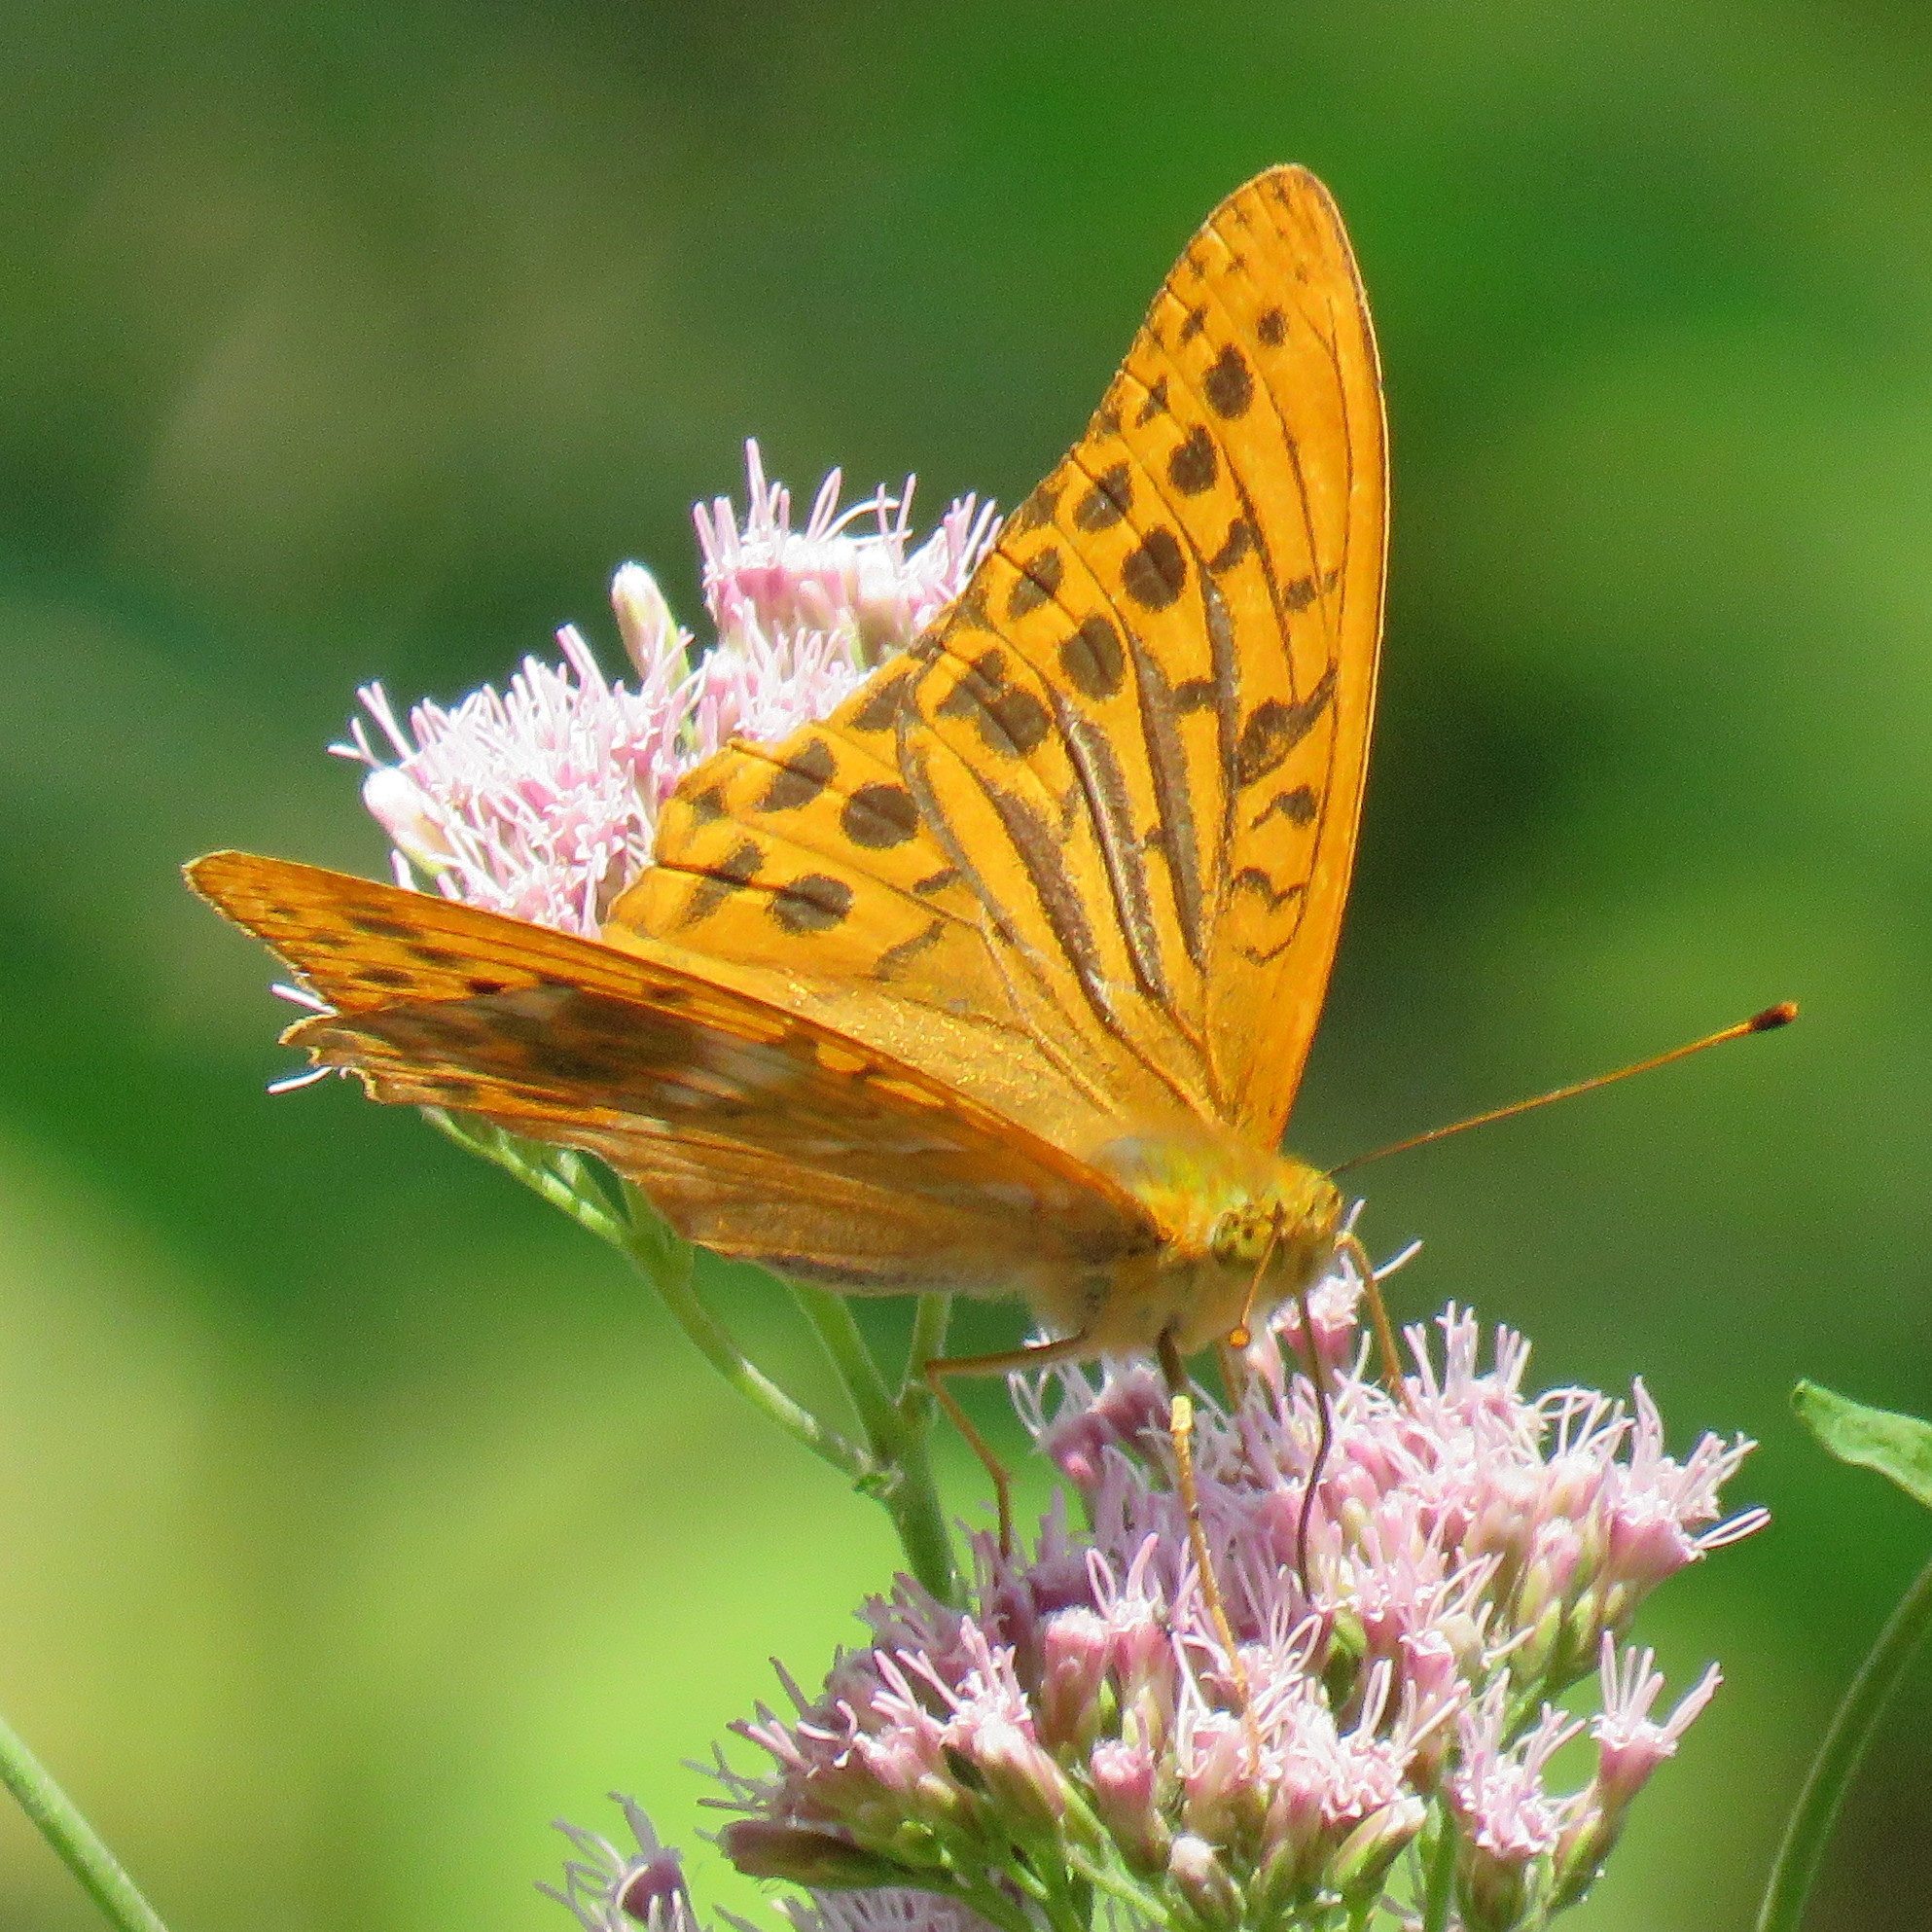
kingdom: Animalia
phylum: Arthropoda
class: Insecta
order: Lepidoptera
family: Nymphalidae
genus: Argynnis
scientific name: Argynnis paphia
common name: Silver-washed fritillary
